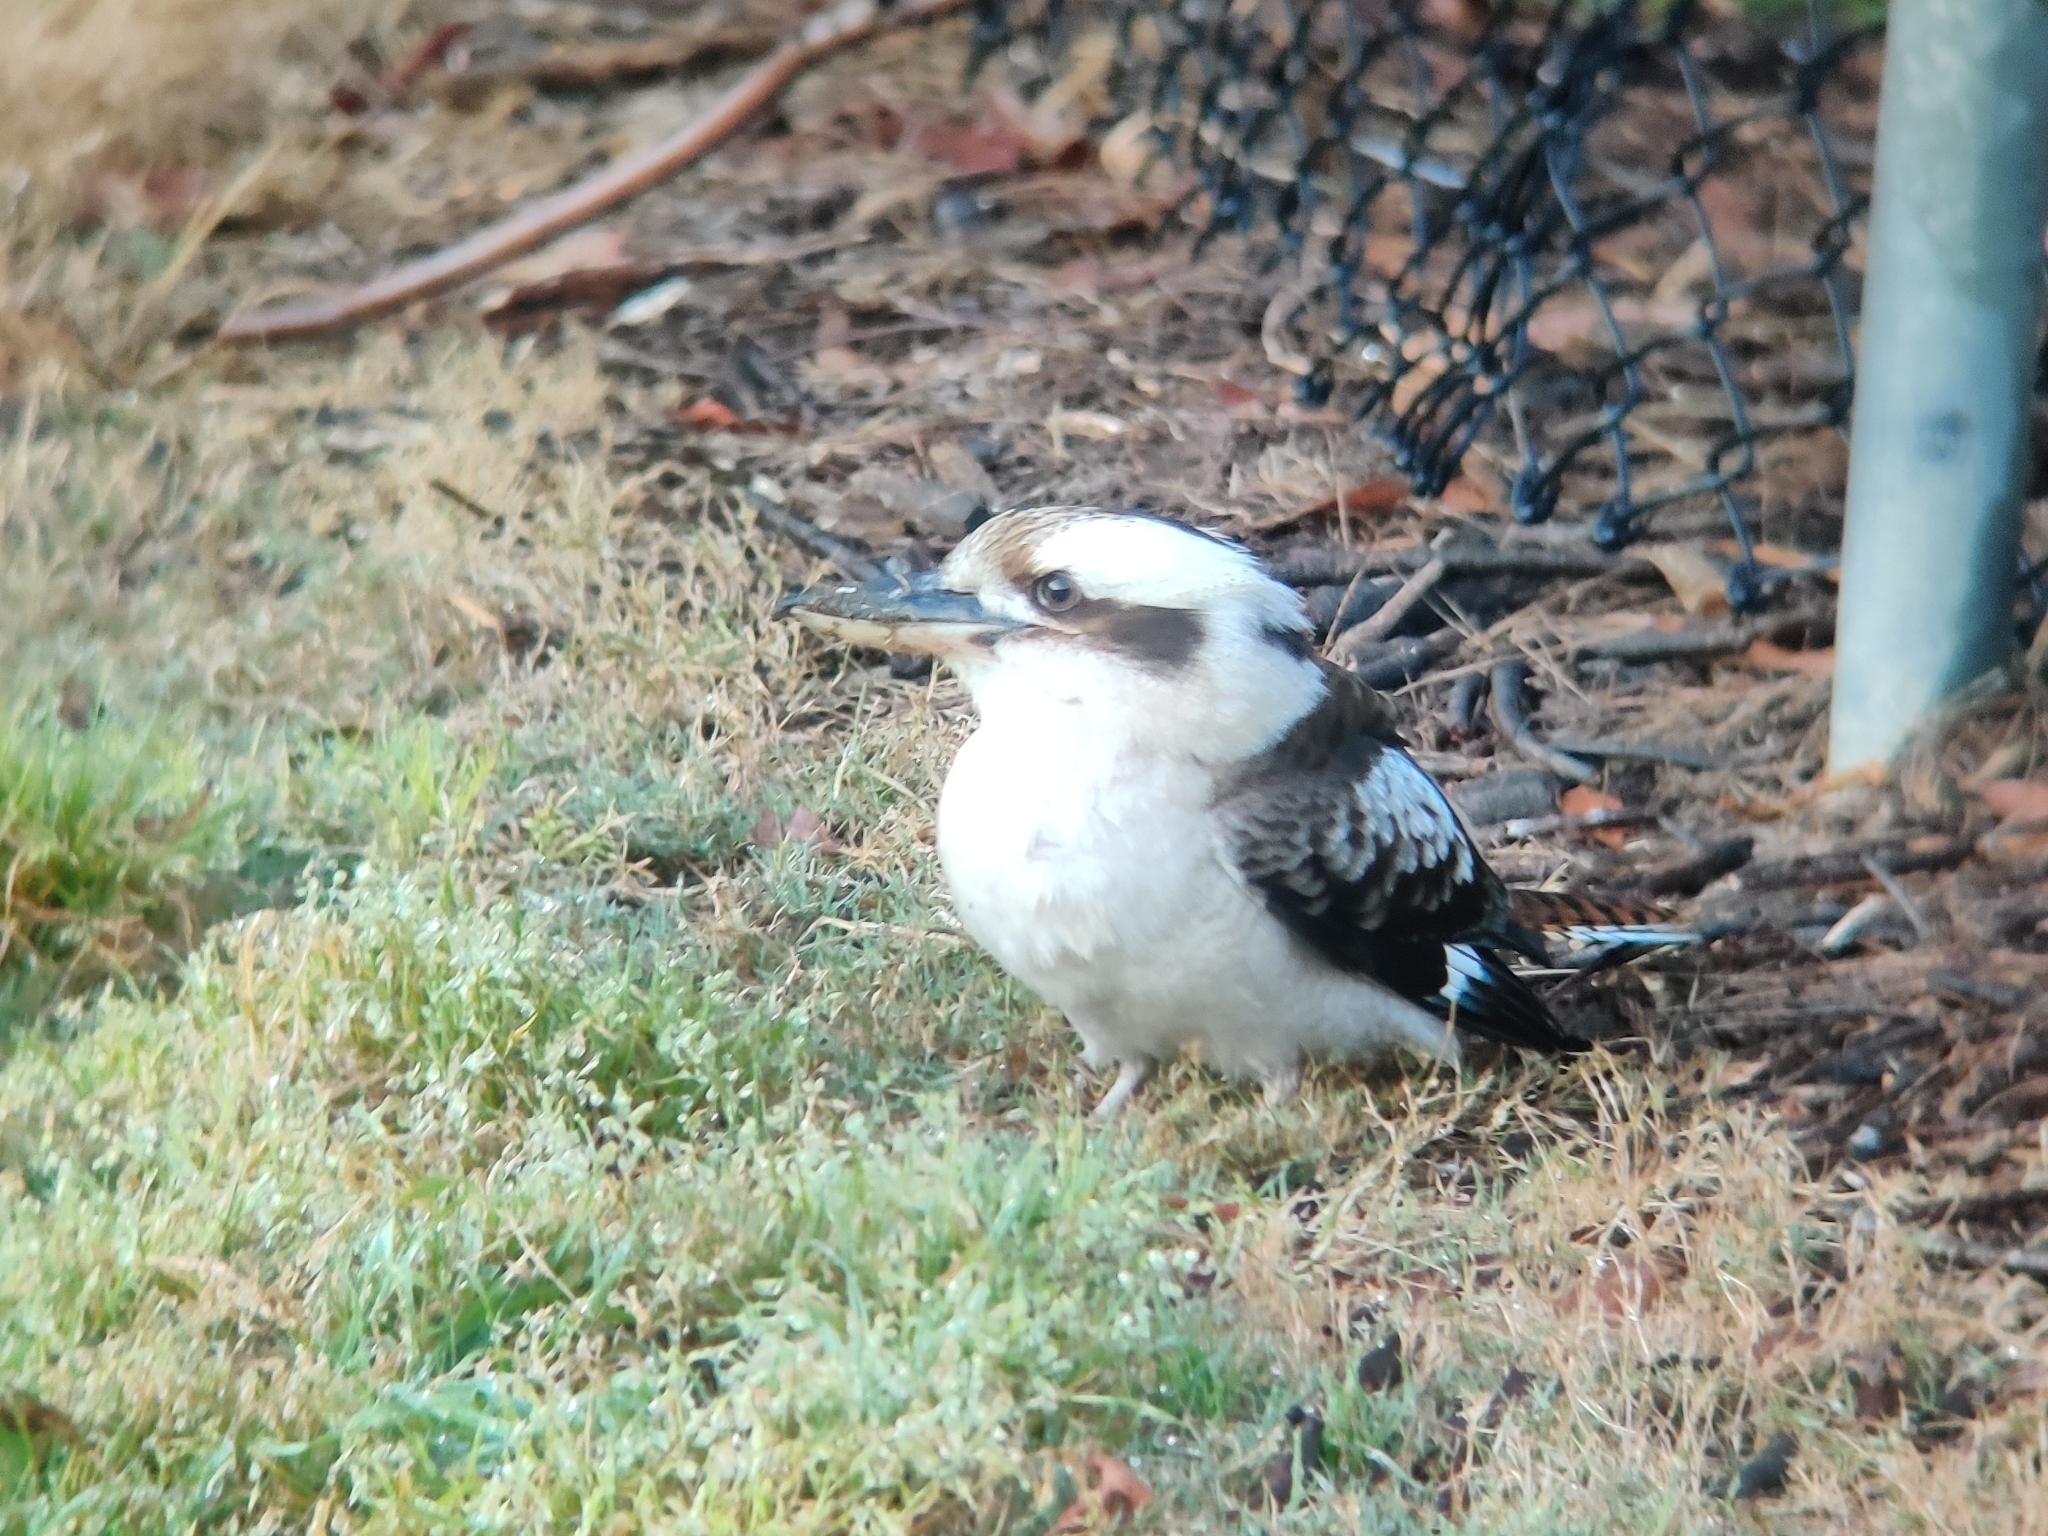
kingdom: Animalia
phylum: Chordata
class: Aves
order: Coraciiformes
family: Alcedinidae
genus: Dacelo
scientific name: Dacelo novaeguineae
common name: Laughing kookaburra
